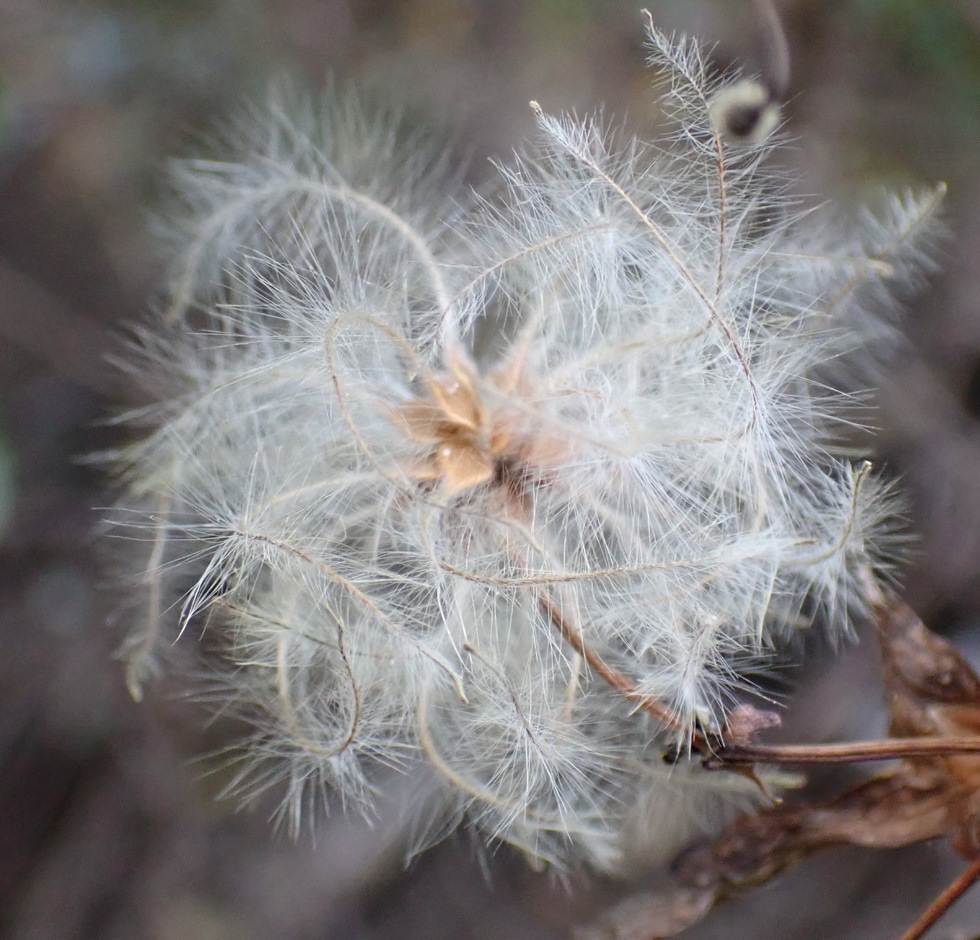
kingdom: Plantae
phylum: Tracheophyta
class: Magnoliopsida
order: Ranunculales
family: Ranunculaceae
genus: Clematis
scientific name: Clematis brachiata
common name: Traveler's-joy
